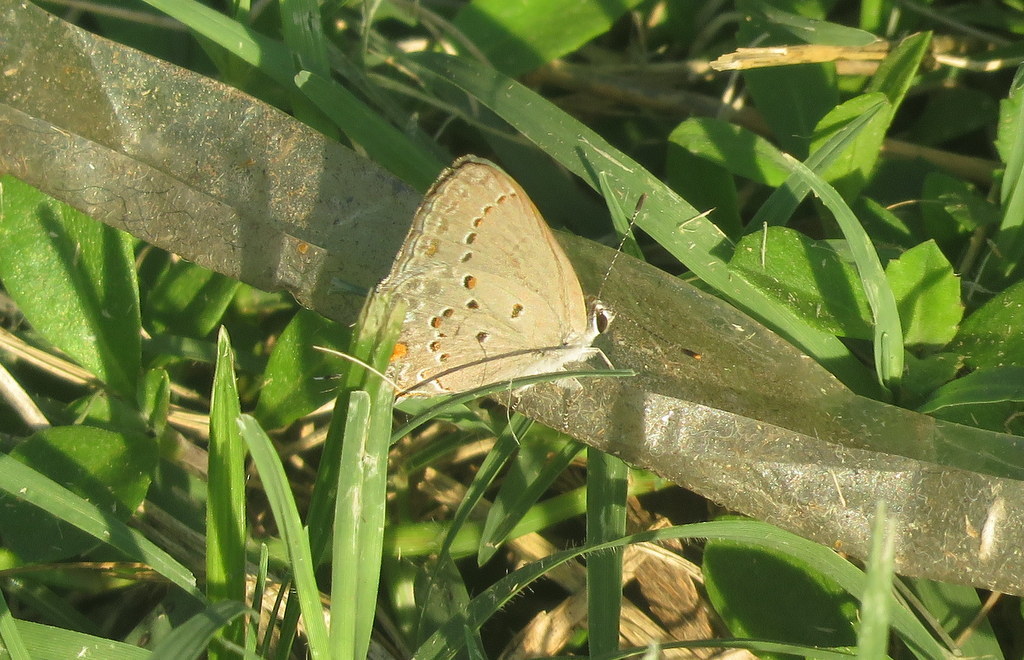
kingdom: Animalia
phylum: Arthropoda
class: Insecta
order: Lepidoptera
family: Lycaenidae
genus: Strymon
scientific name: Strymon eurytulus
